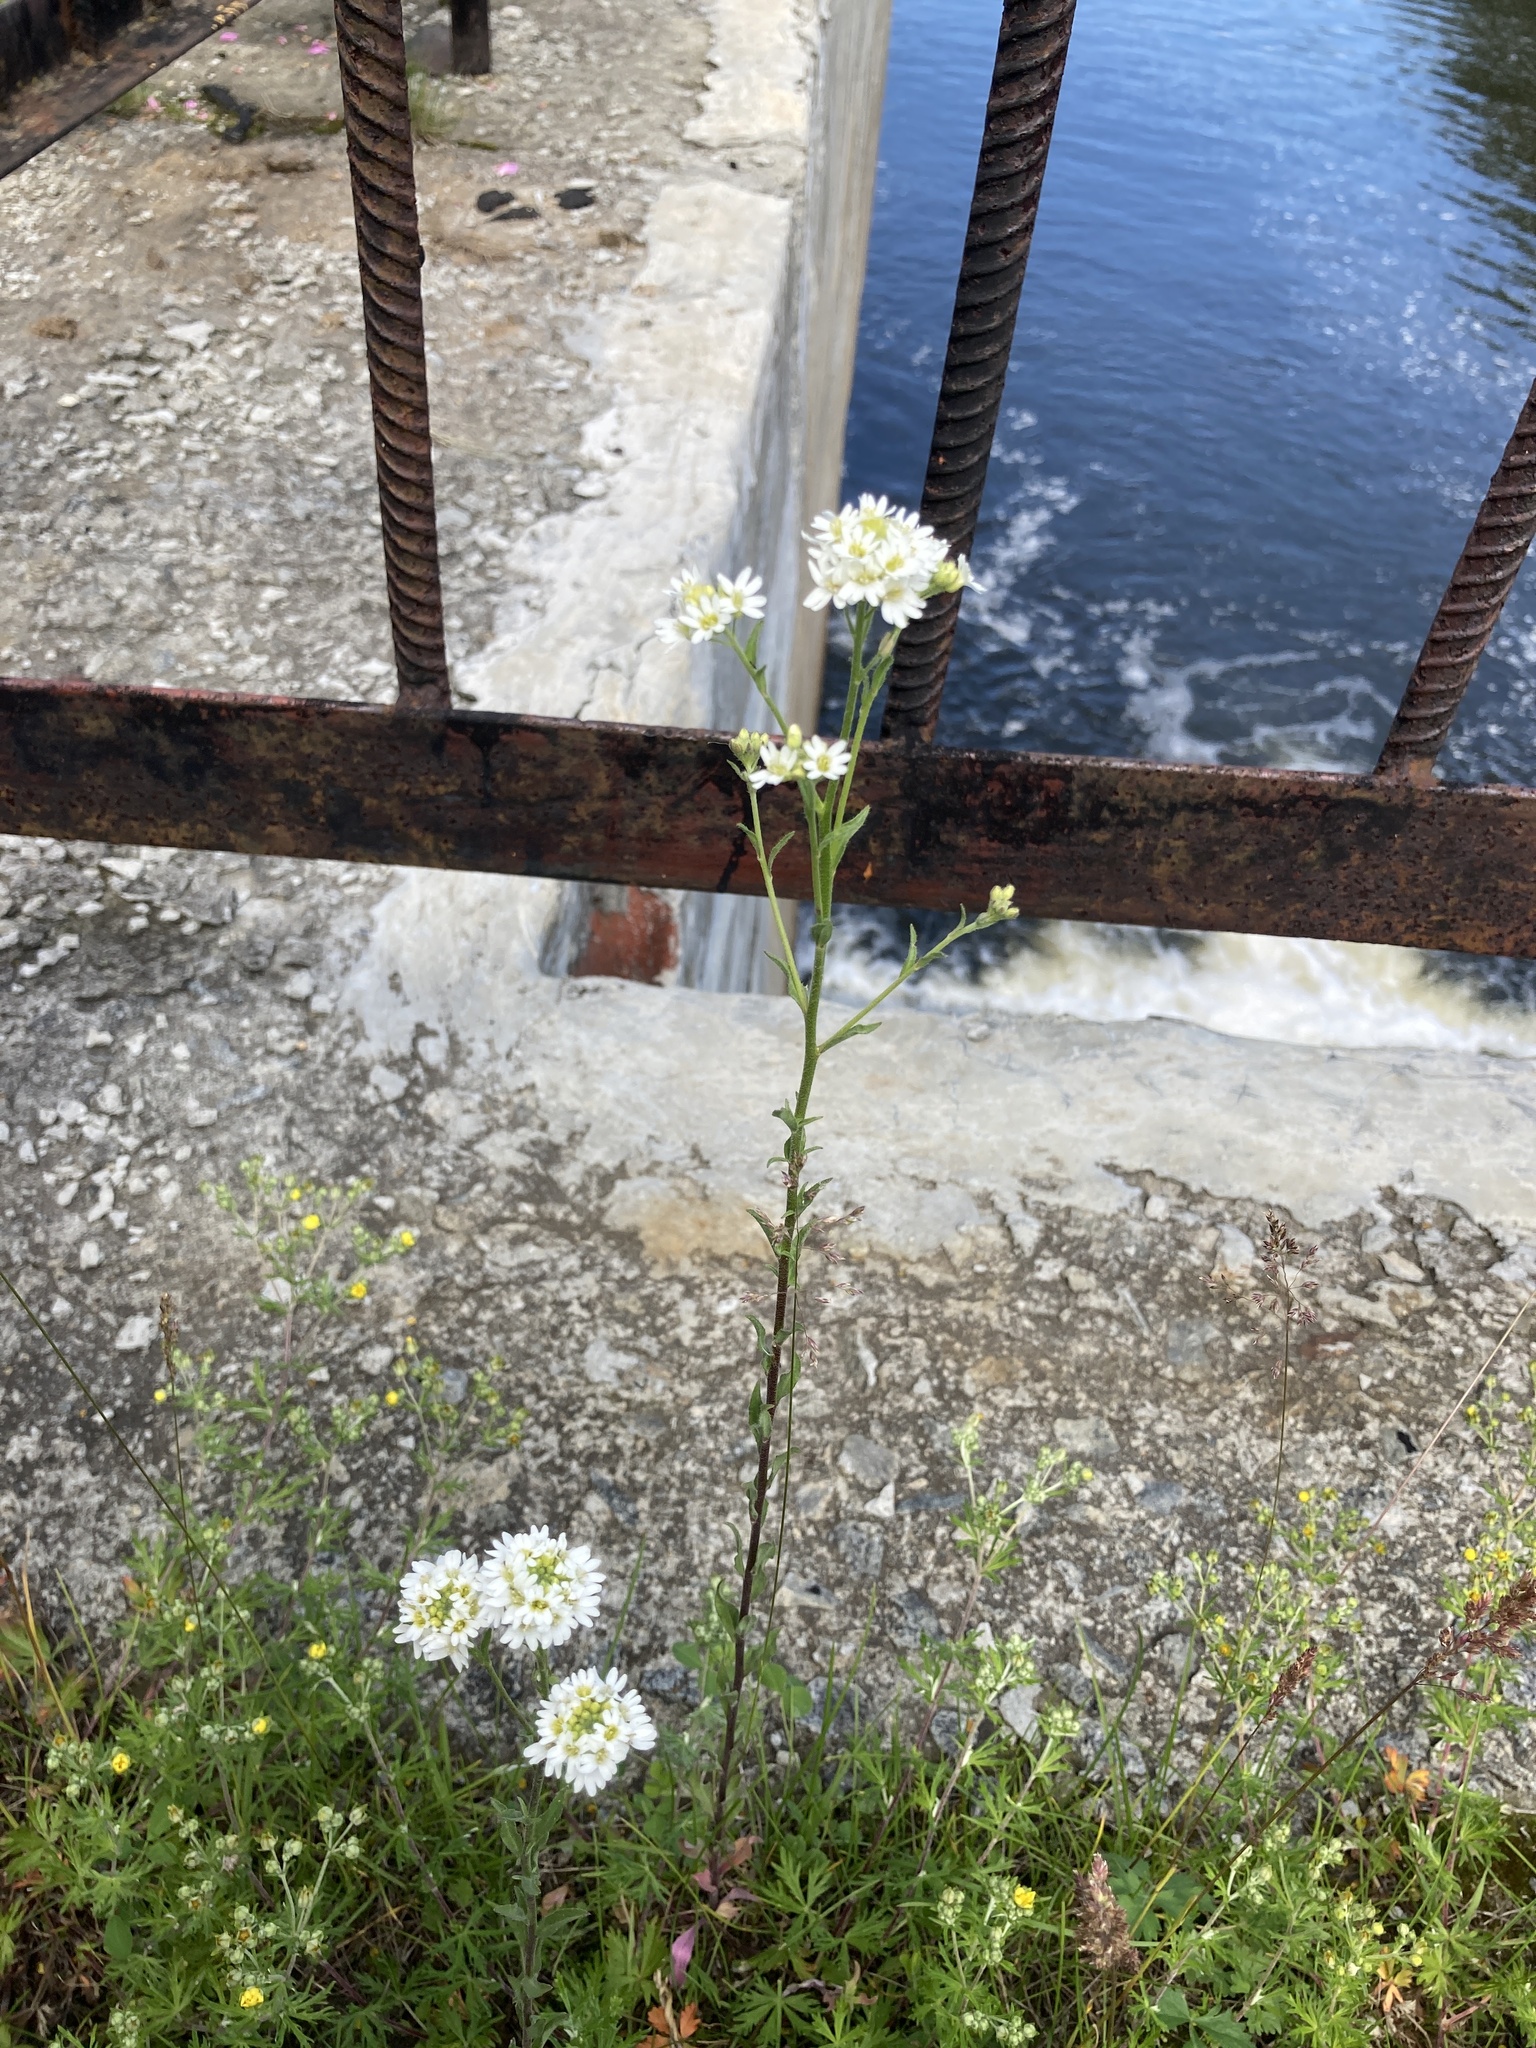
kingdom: Plantae
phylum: Tracheophyta
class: Magnoliopsida
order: Brassicales
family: Brassicaceae
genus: Berteroa
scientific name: Berteroa incana
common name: Hoary alison
